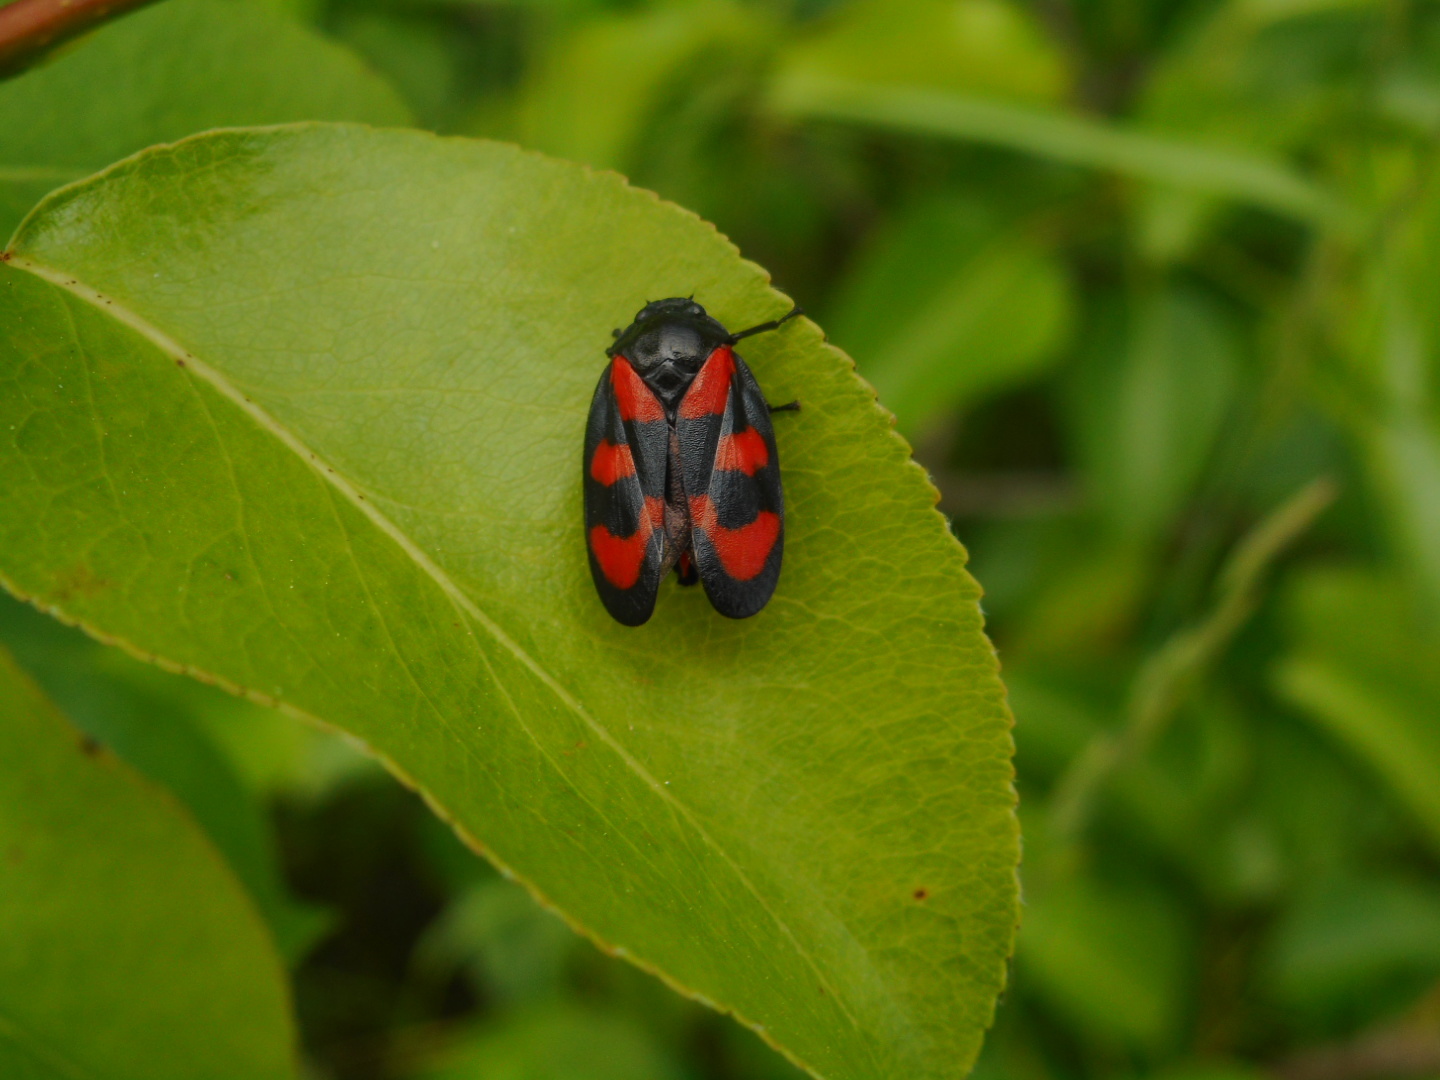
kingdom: Animalia
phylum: Arthropoda
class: Insecta
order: Hemiptera
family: Cercopidae
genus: Cercopis
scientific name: Cercopis vulnerata
